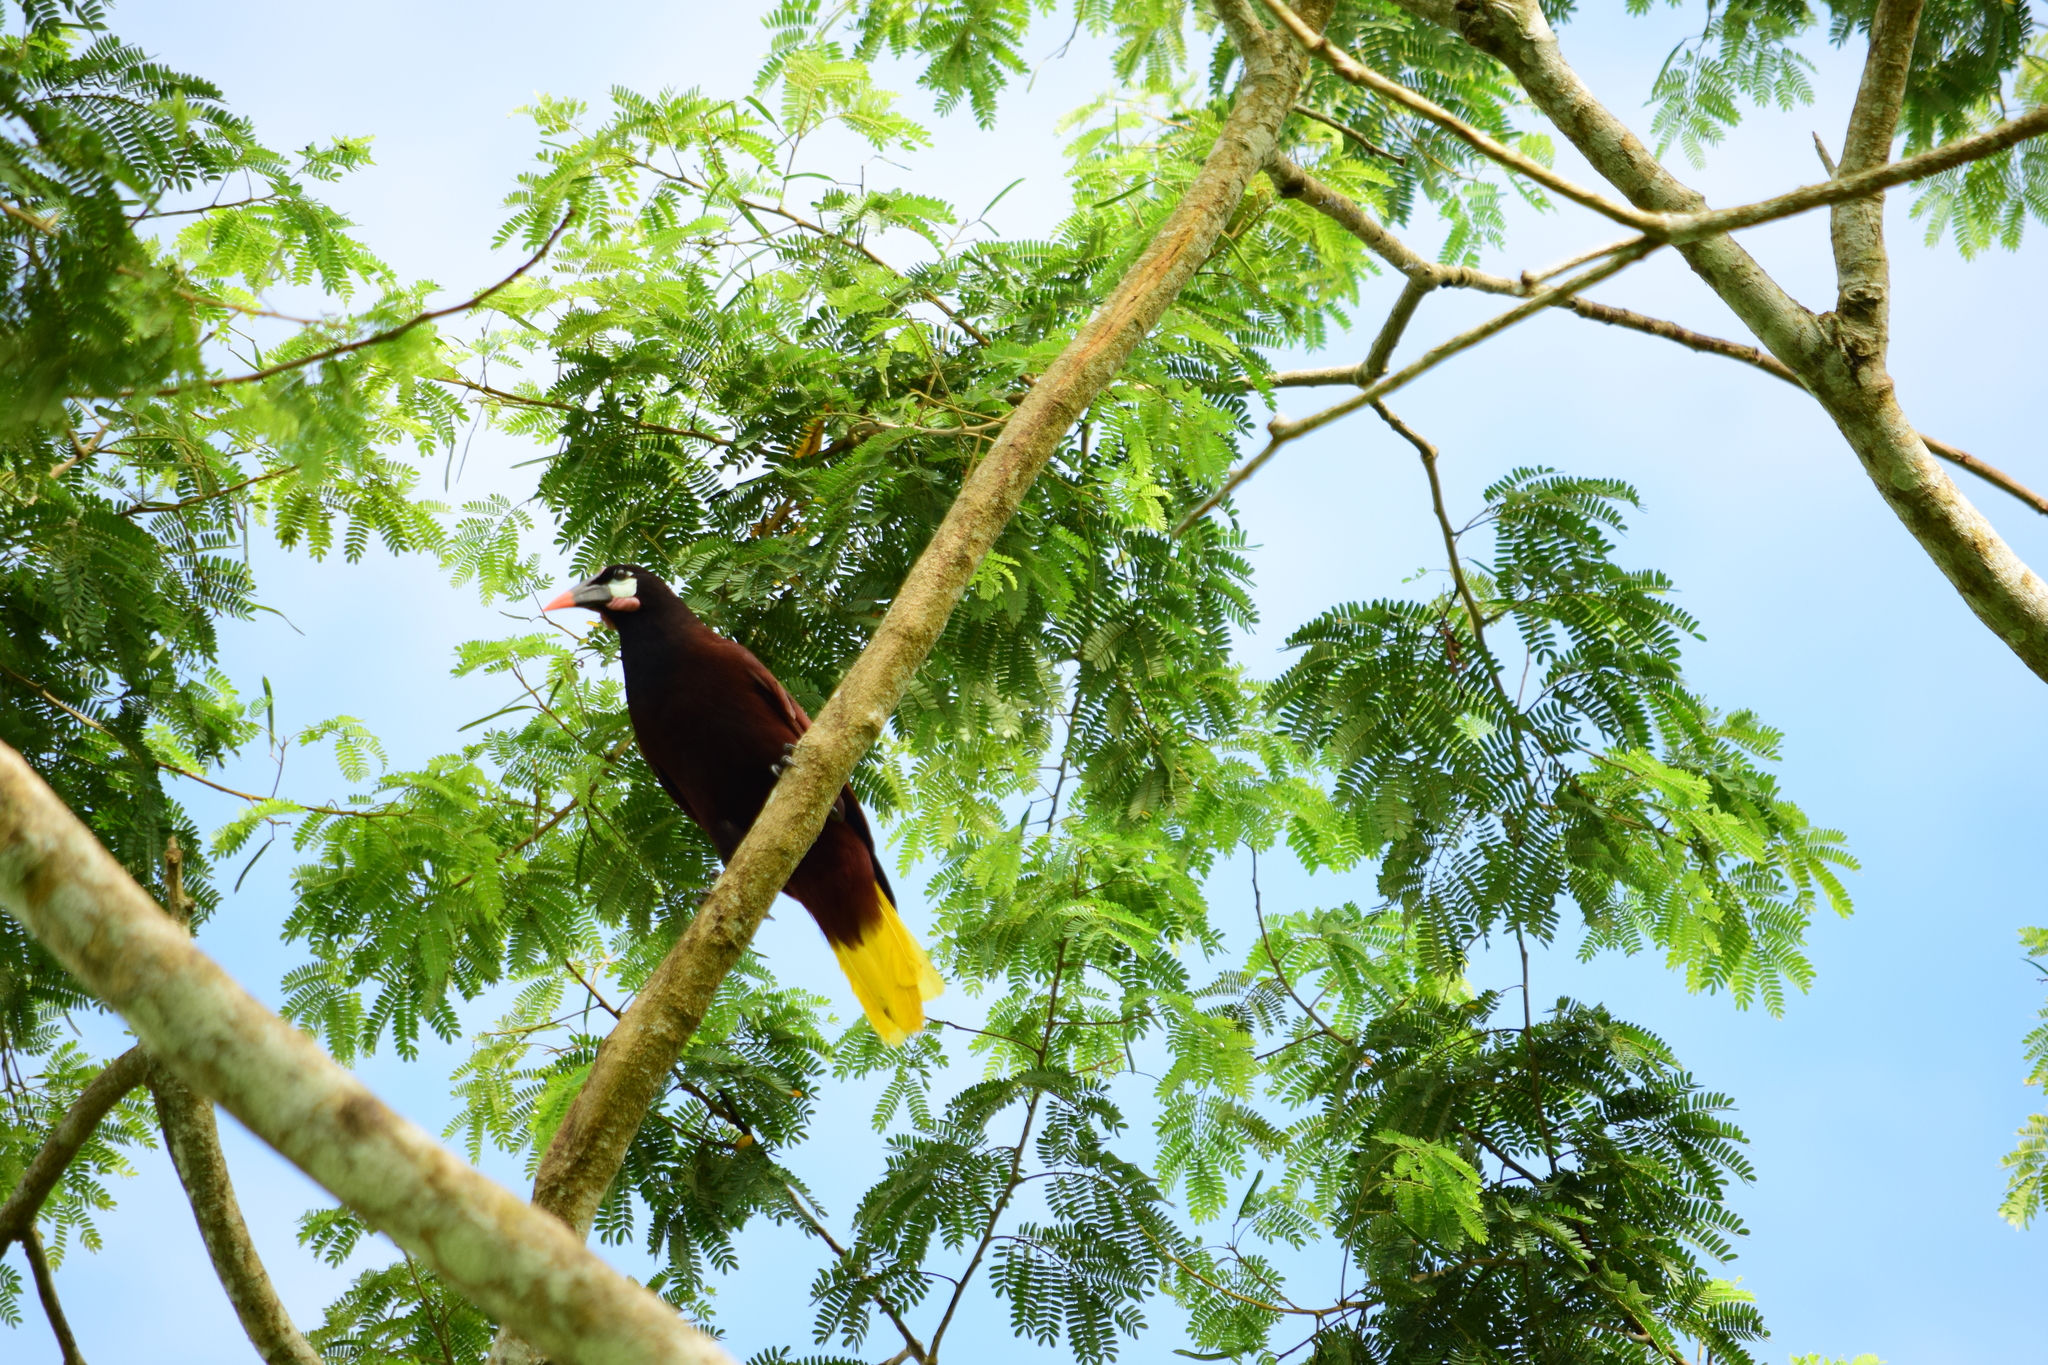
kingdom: Animalia
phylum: Chordata
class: Aves
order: Passeriformes
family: Icteridae
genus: Psarocolius
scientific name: Psarocolius montezuma
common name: Montezuma oropendola
